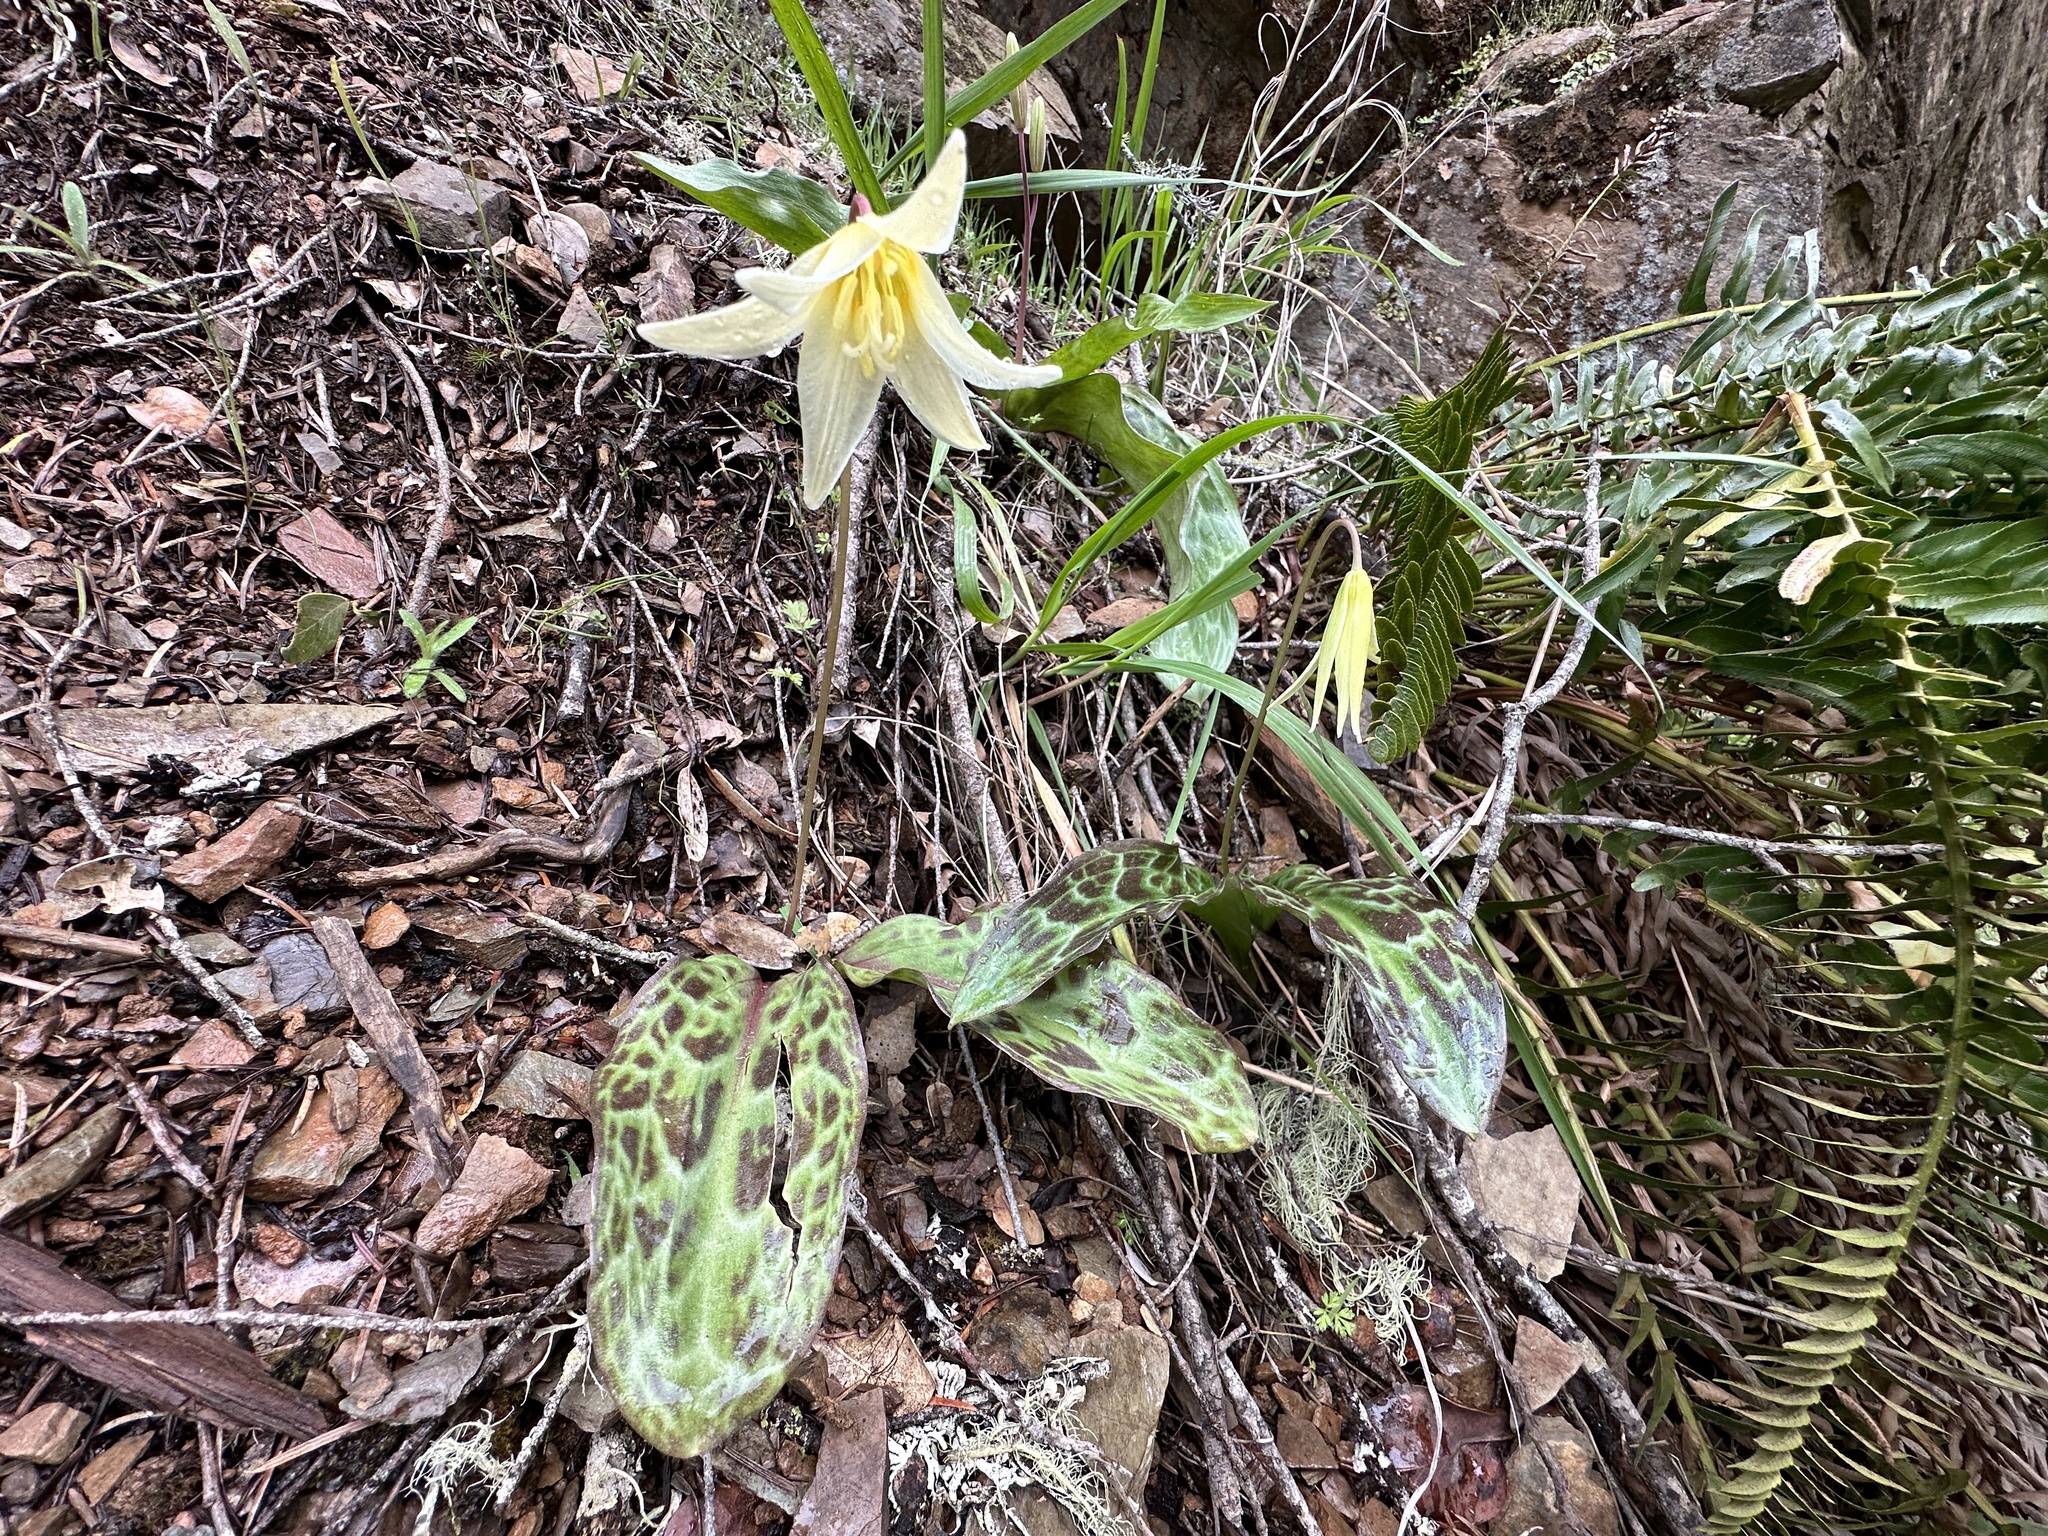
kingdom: Plantae
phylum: Tracheophyta
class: Liliopsida
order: Liliales
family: Liliaceae
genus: Erythronium
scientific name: Erythronium oregonum
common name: Giant adder's-tongue
